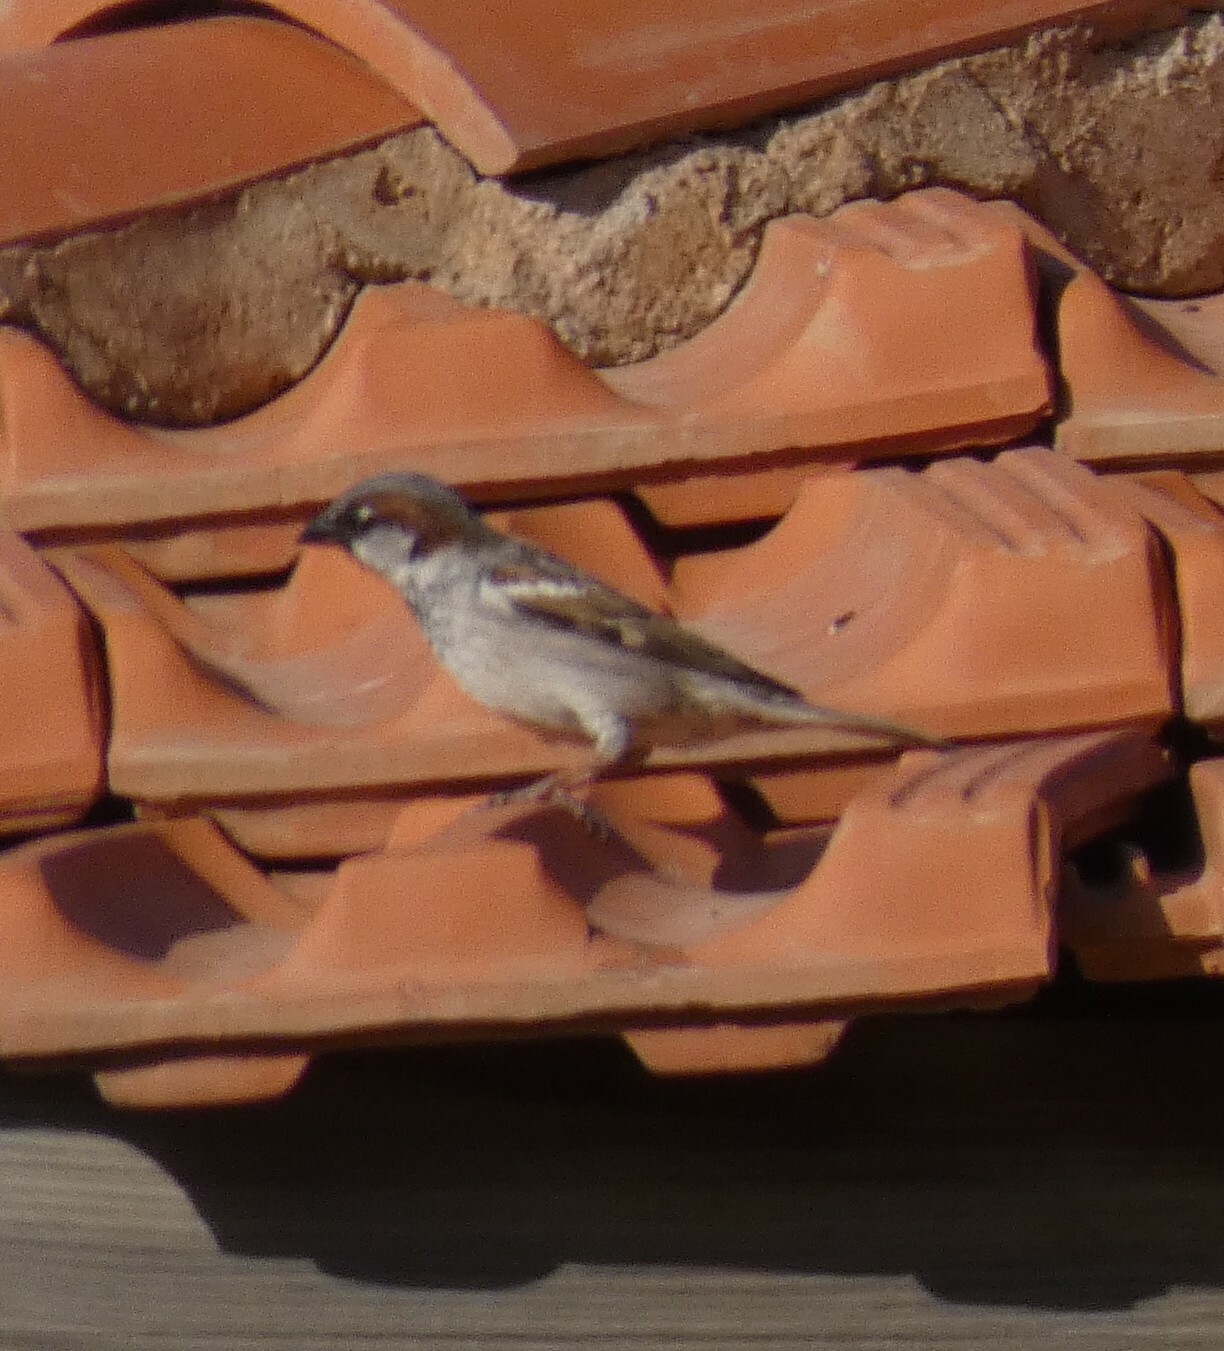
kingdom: Animalia
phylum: Chordata
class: Aves
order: Passeriformes
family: Passeridae
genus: Passer
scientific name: Passer domesticus
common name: House sparrow
